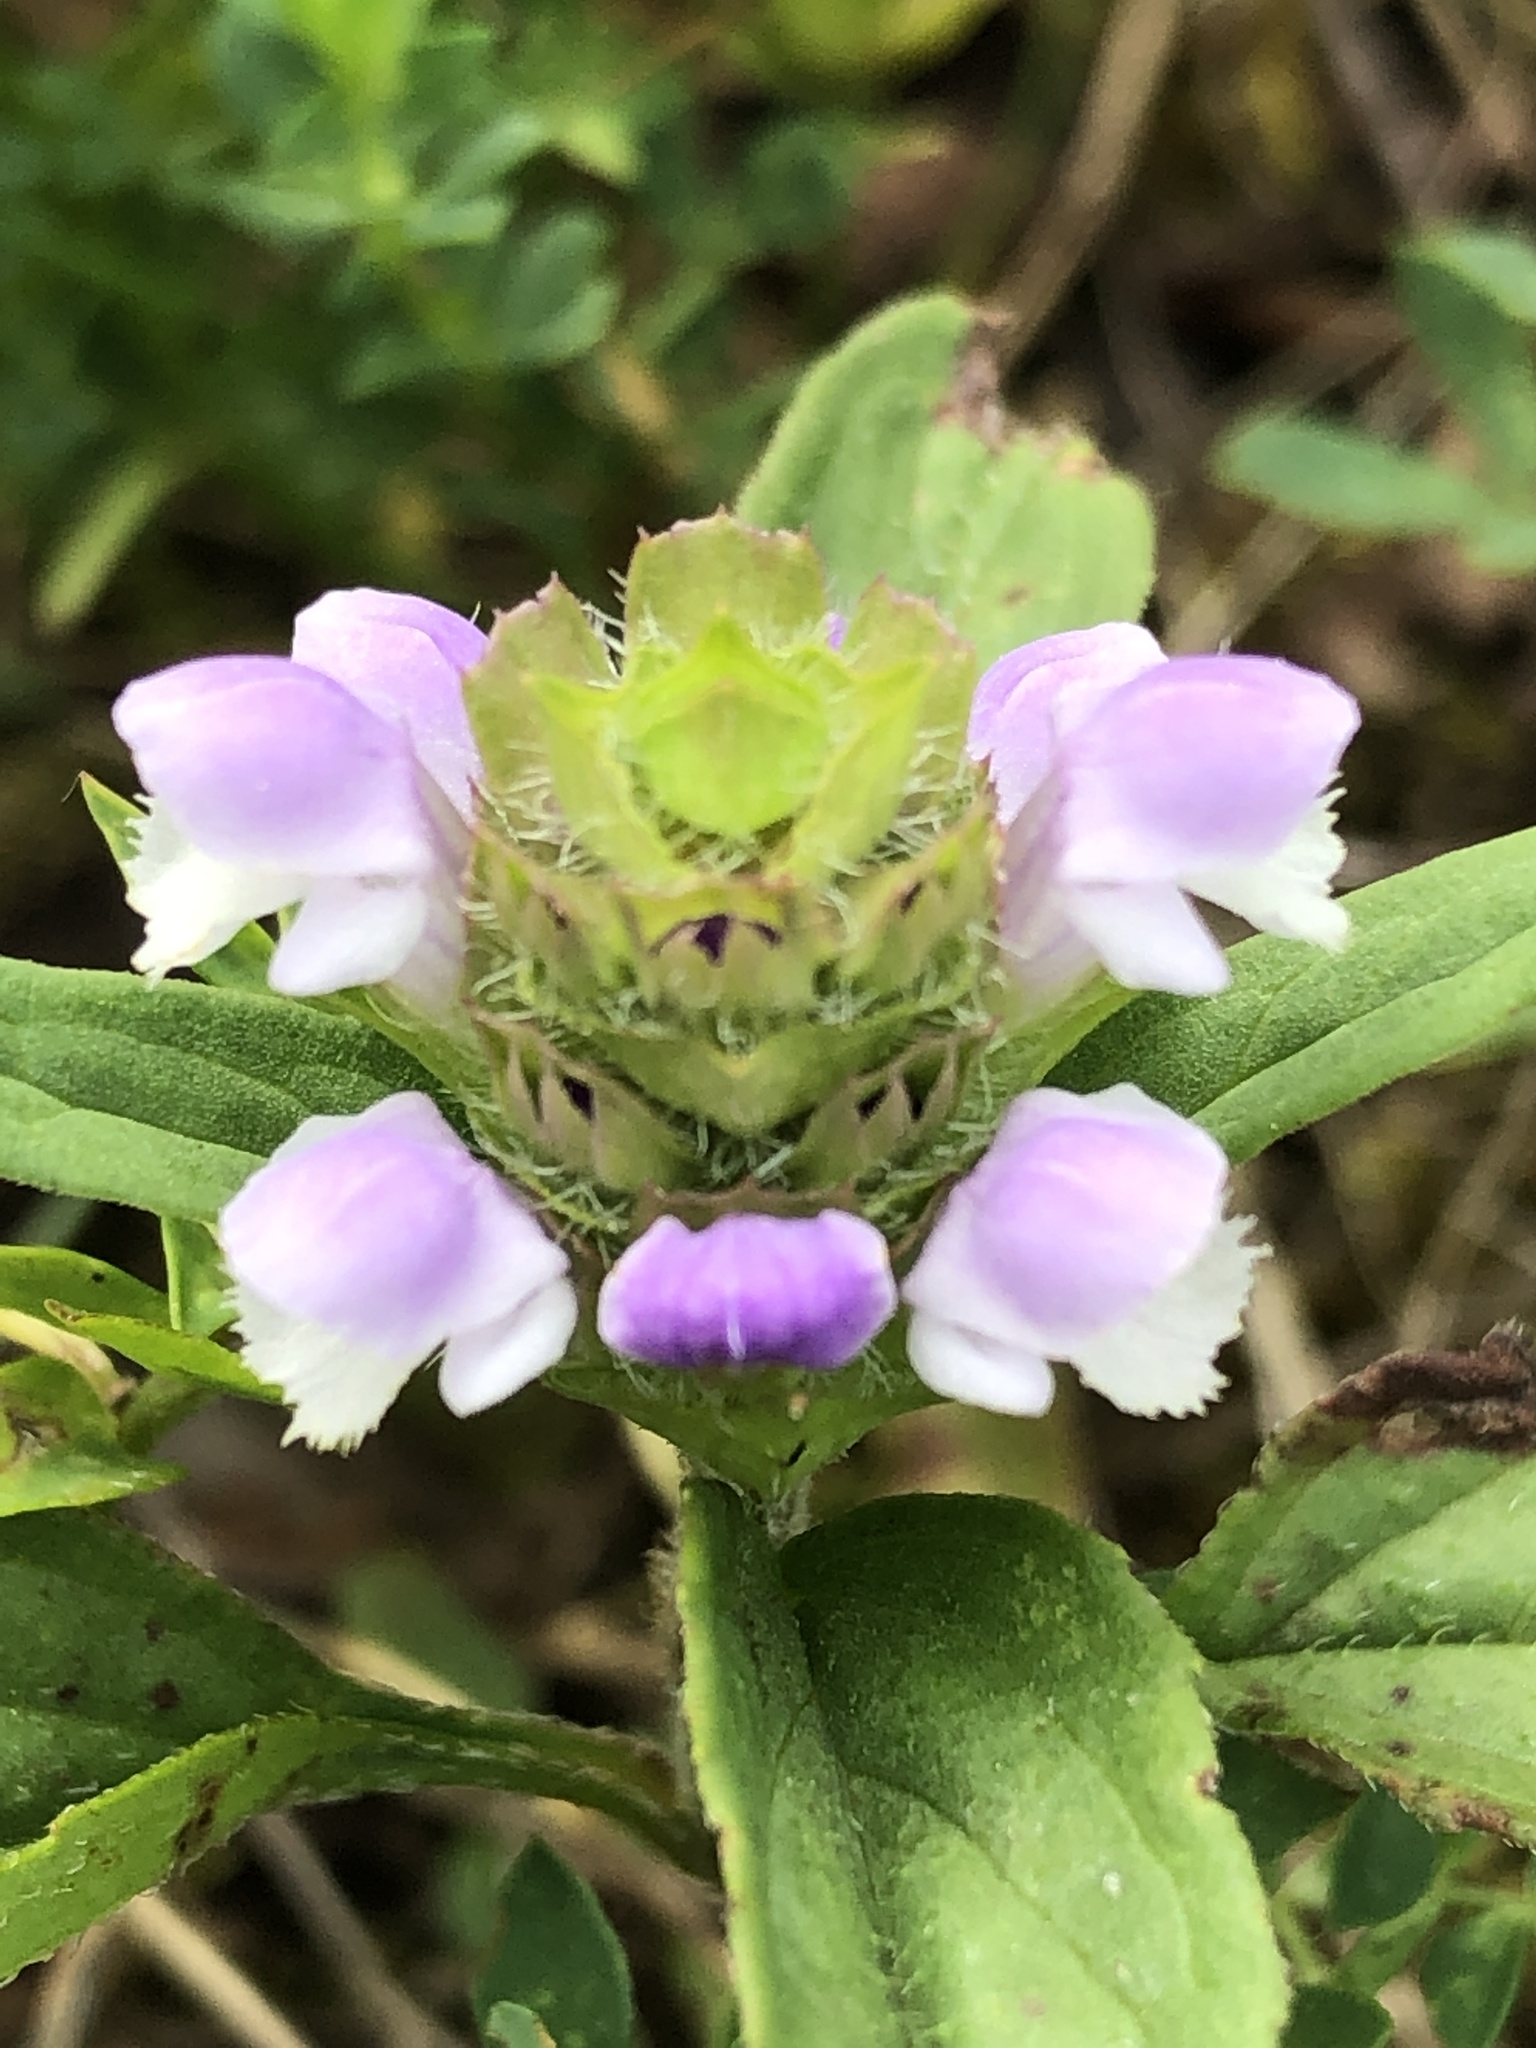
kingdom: Plantae
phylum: Tracheophyta
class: Magnoliopsida
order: Lamiales
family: Lamiaceae
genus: Prunella
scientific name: Prunella vulgaris
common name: Heal-all
